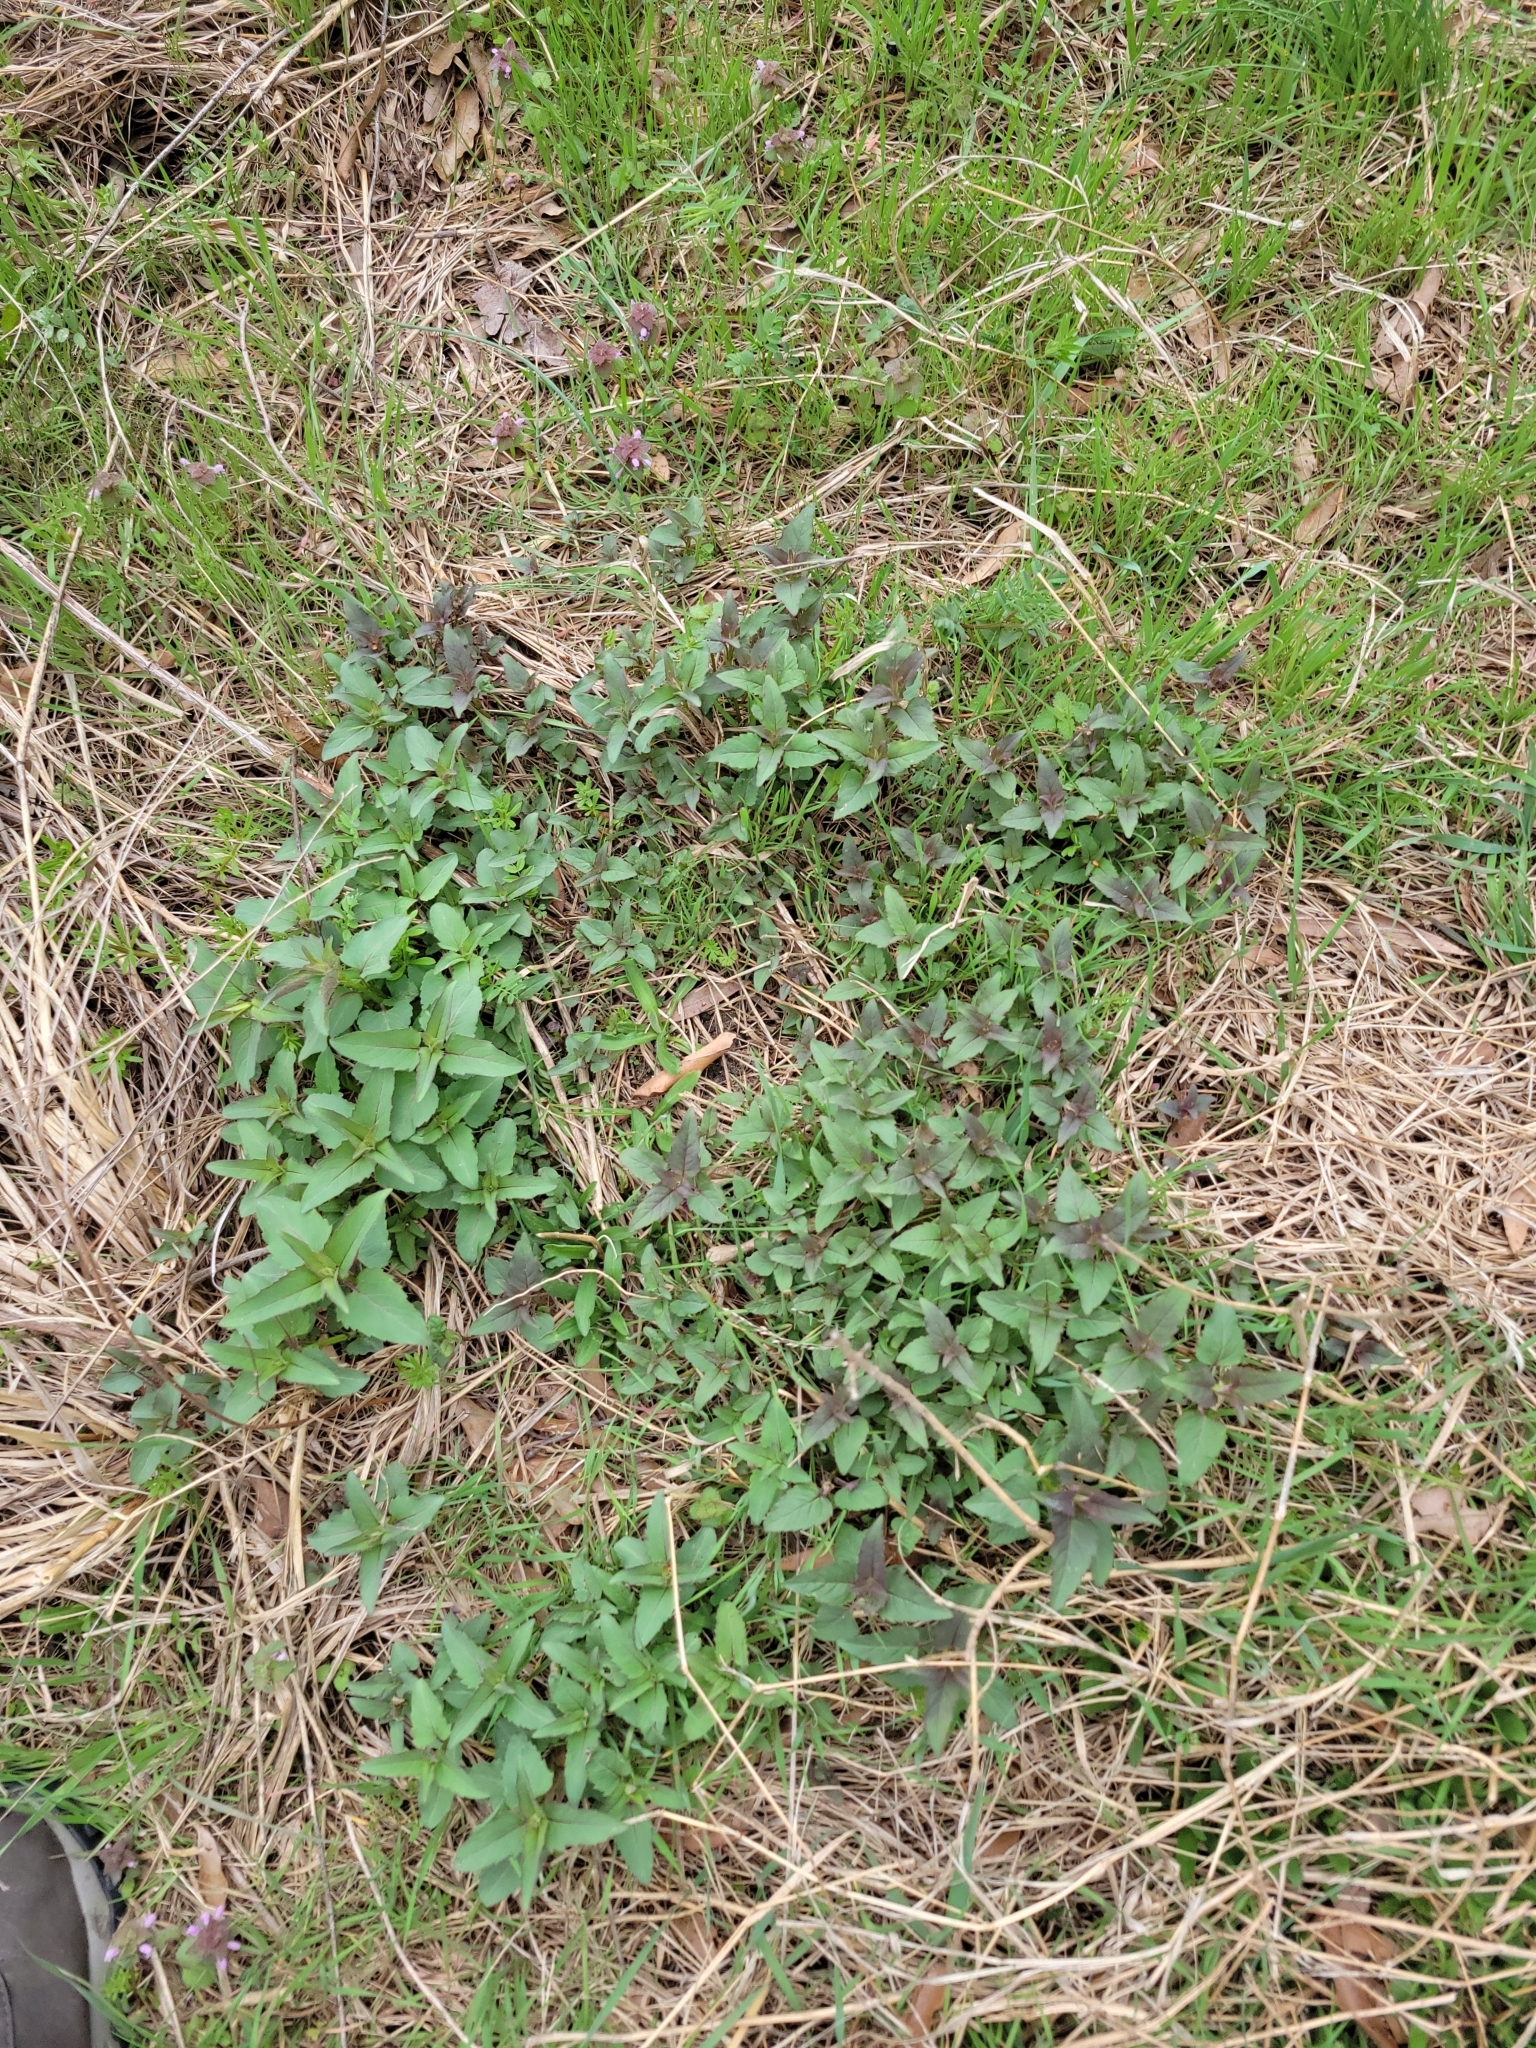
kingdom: Plantae
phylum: Tracheophyta
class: Magnoliopsida
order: Lamiales
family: Lamiaceae
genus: Monarda
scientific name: Monarda fistulosa
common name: Purple beebalm
